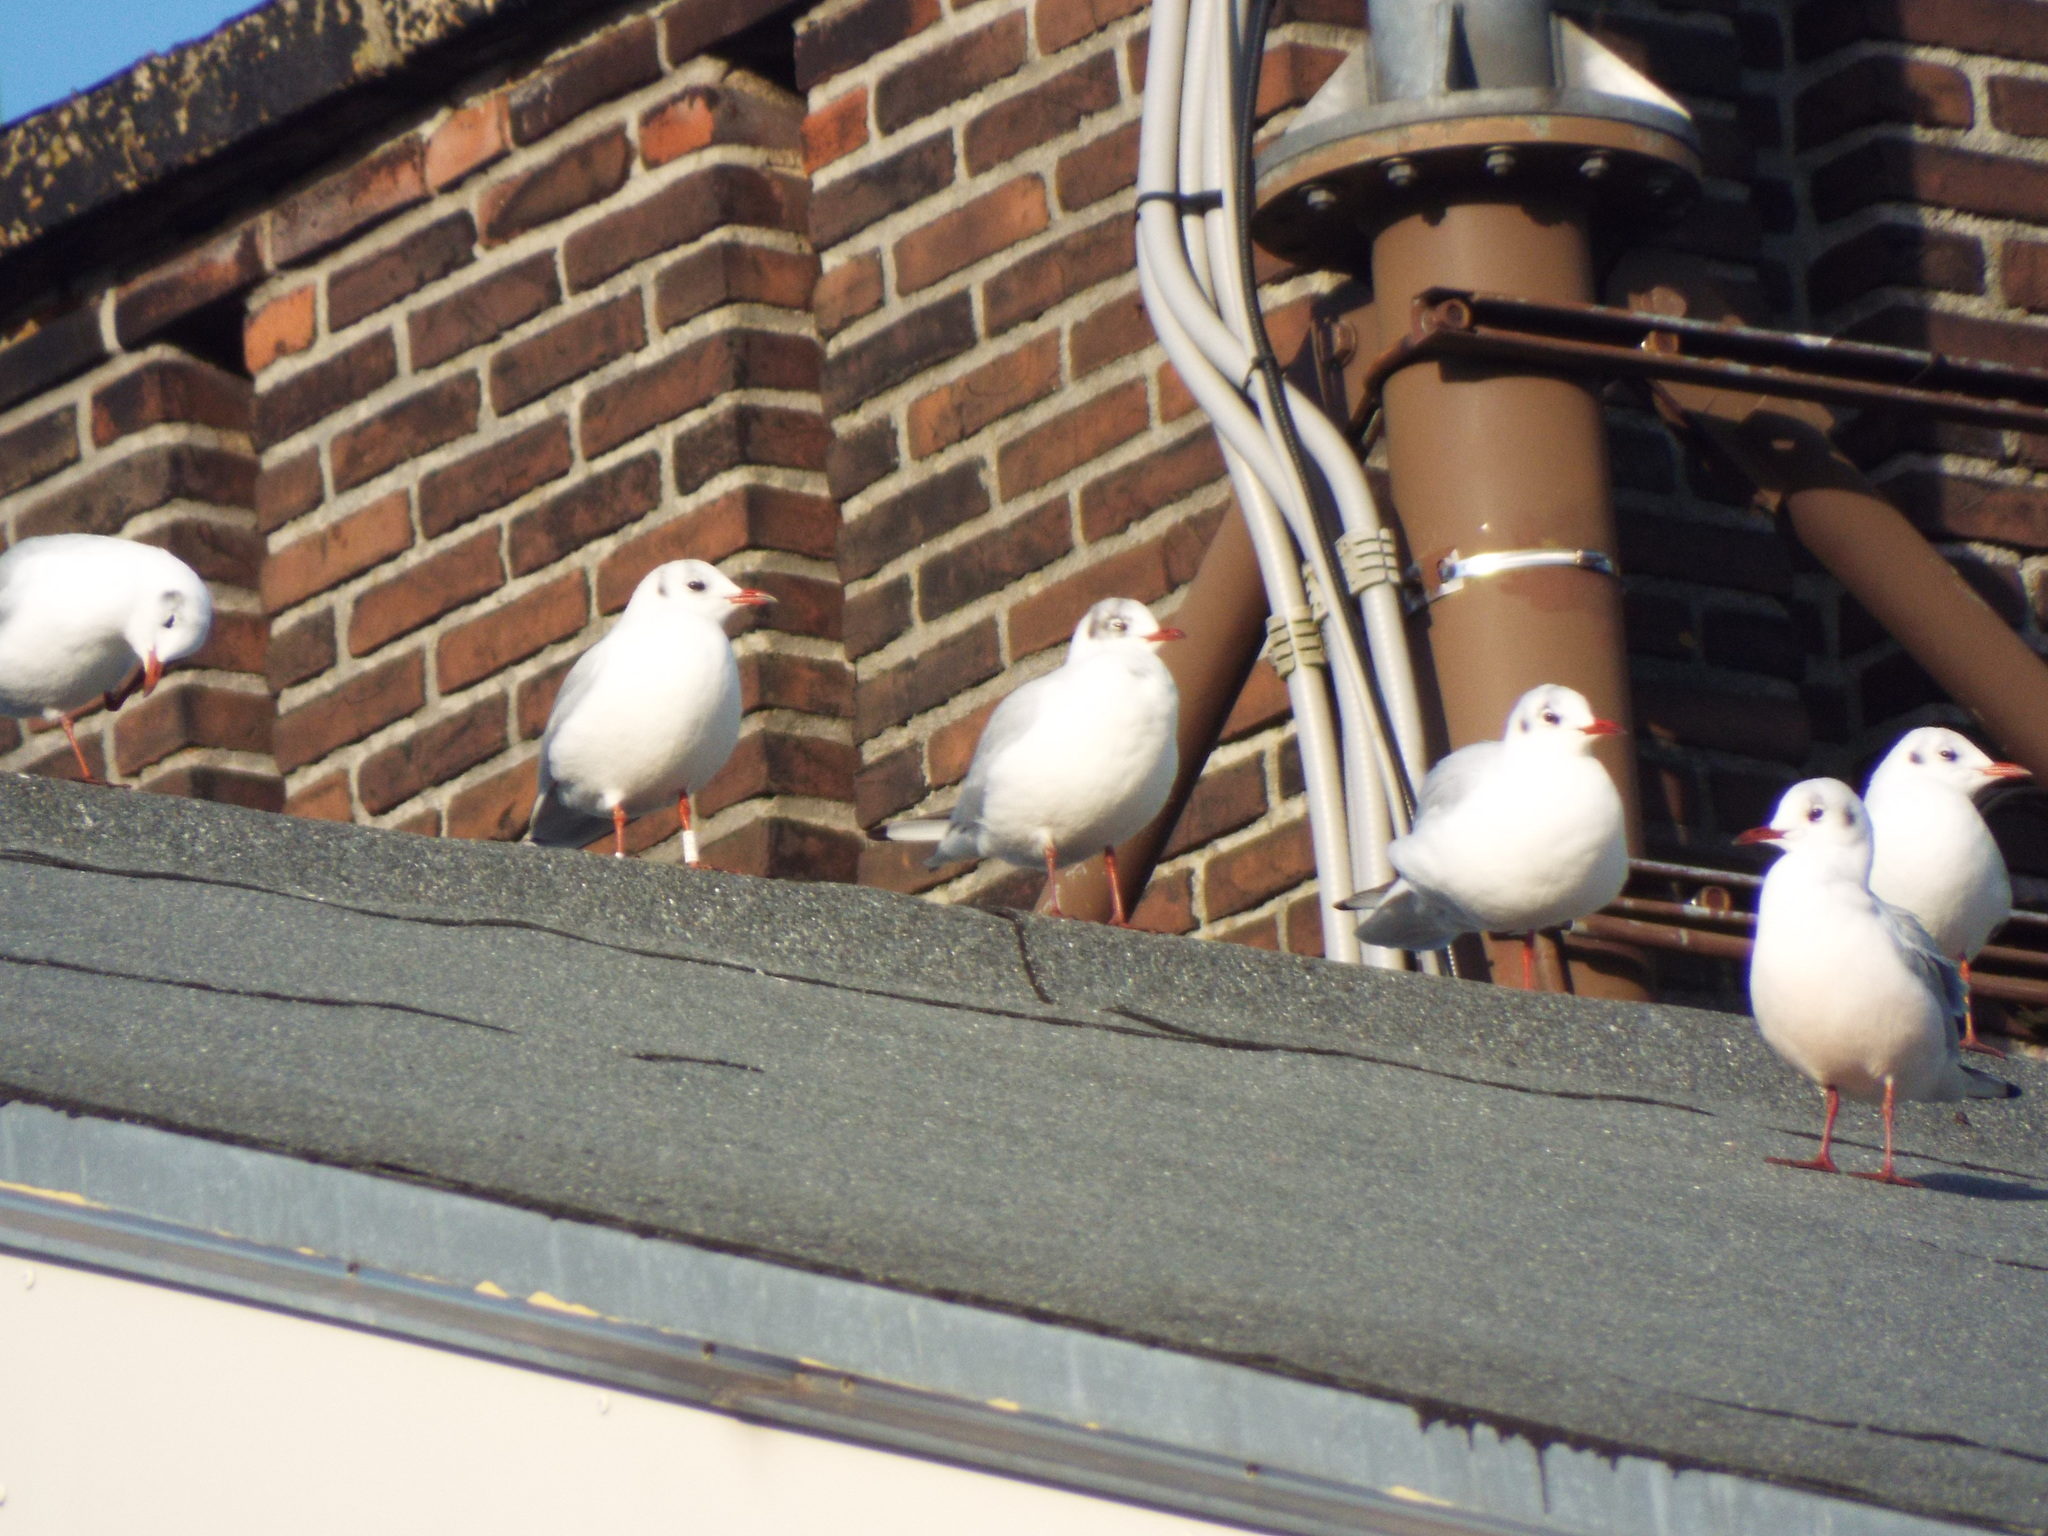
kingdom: Animalia
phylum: Chordata
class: Aves
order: Charadriiformes
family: Laridae
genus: Chroicocephalus
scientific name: Chroicocephalus ridibundus
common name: Black-headed gull
